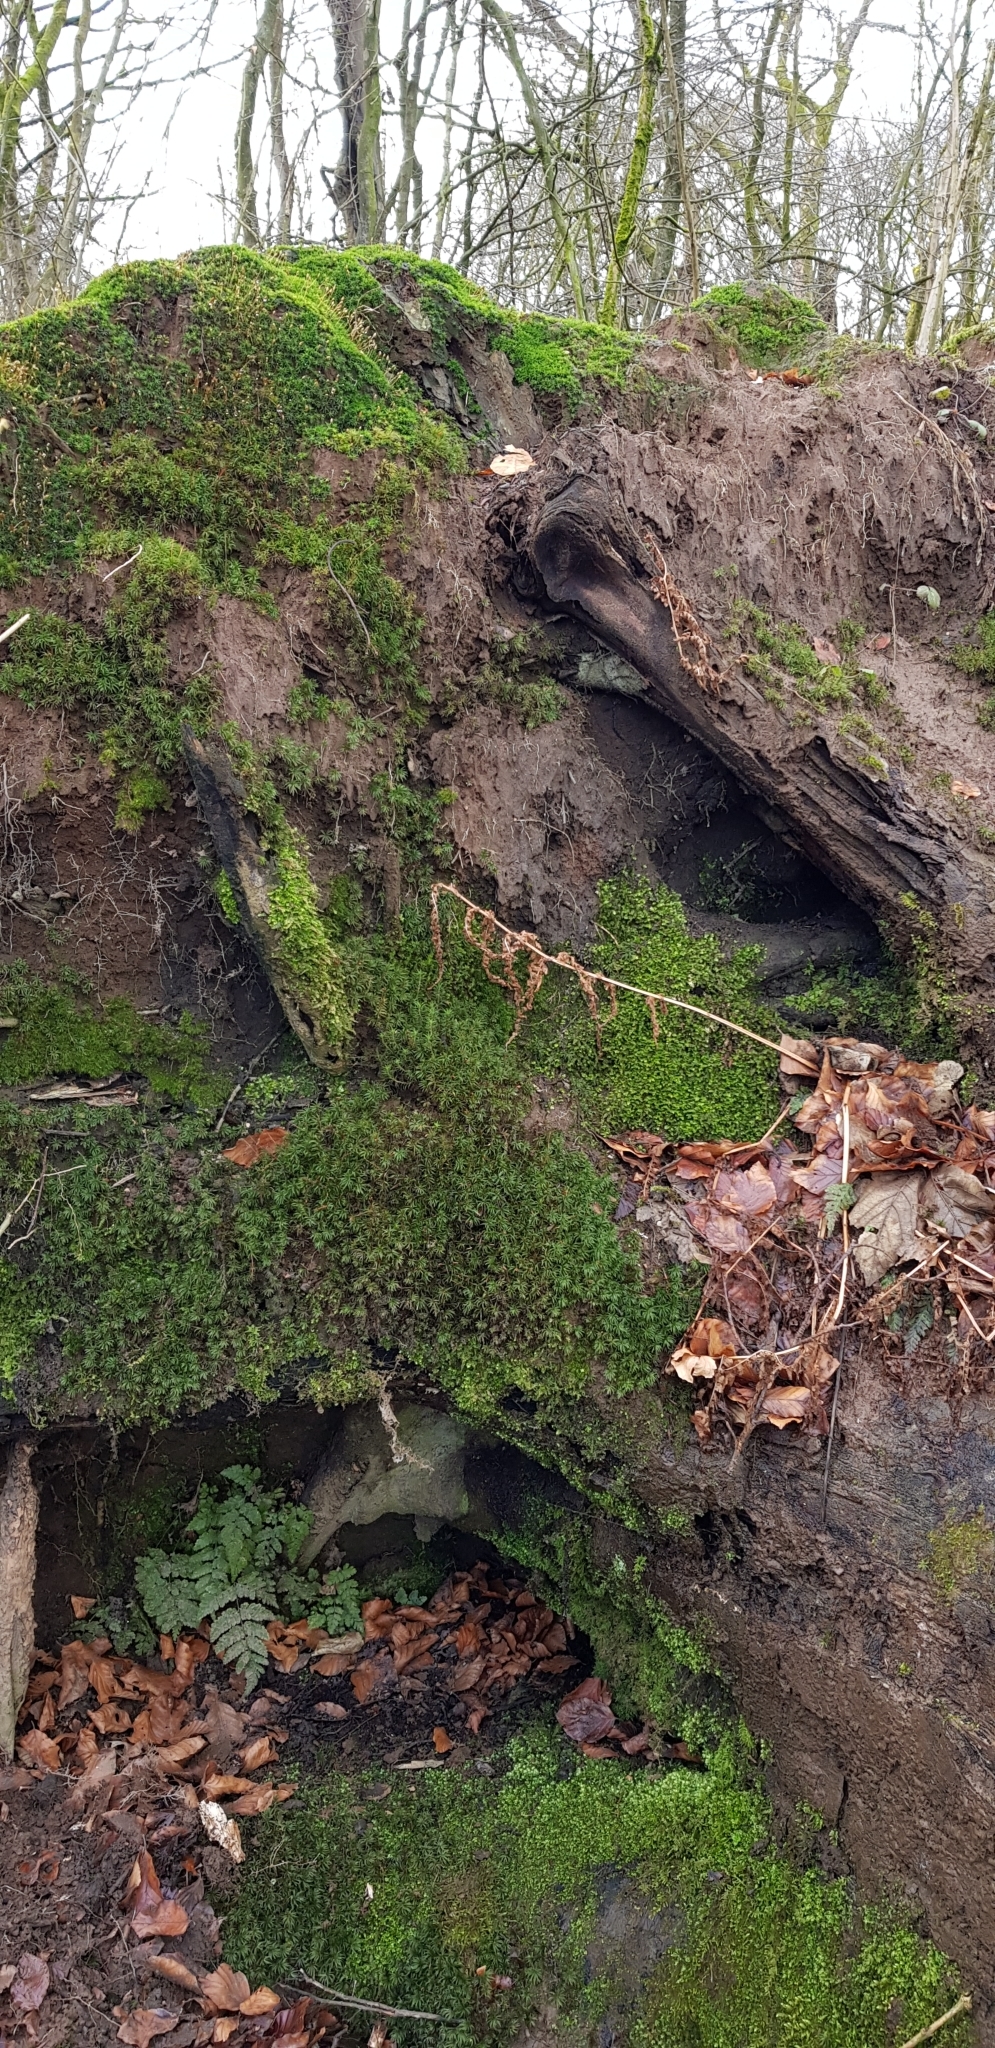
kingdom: Plantae
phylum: Bryophyta
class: Polytrichopsida
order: Polytrichales
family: Polytrichaceae
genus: Pogonatum
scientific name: Pogonatum aloides
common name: Aloe haircap
